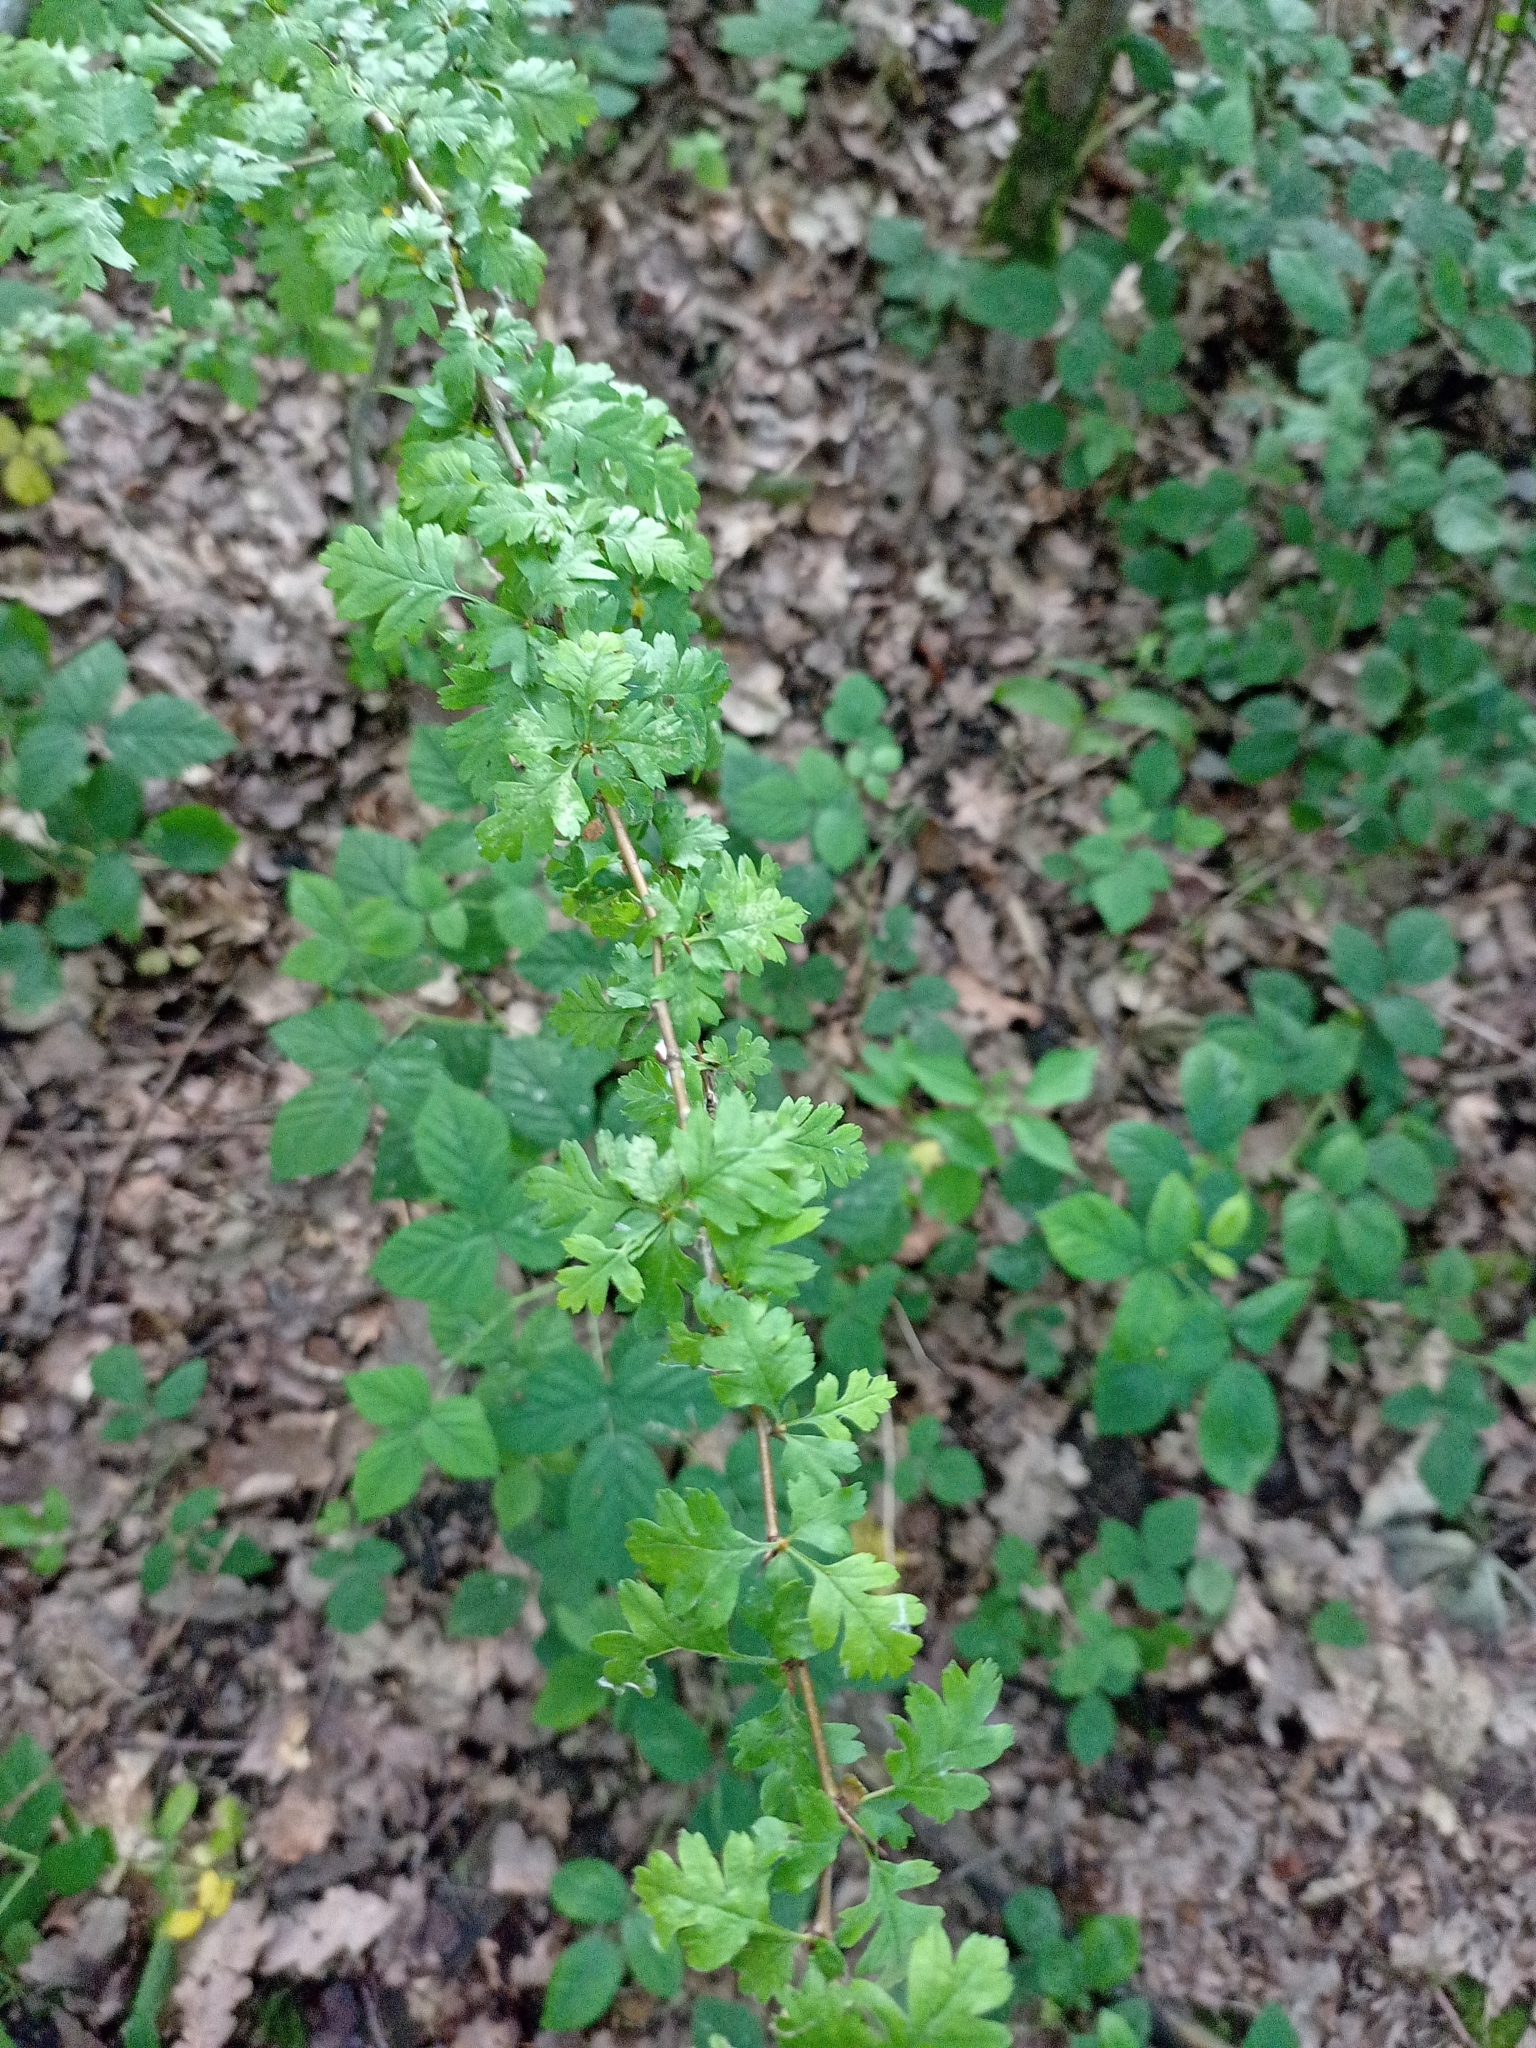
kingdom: Plantae
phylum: Tracheophyta
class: Magnoliopsida
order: Rosales
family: Rosaceae
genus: Crataegus
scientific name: Crataegus monogyna
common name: Hawthorn
